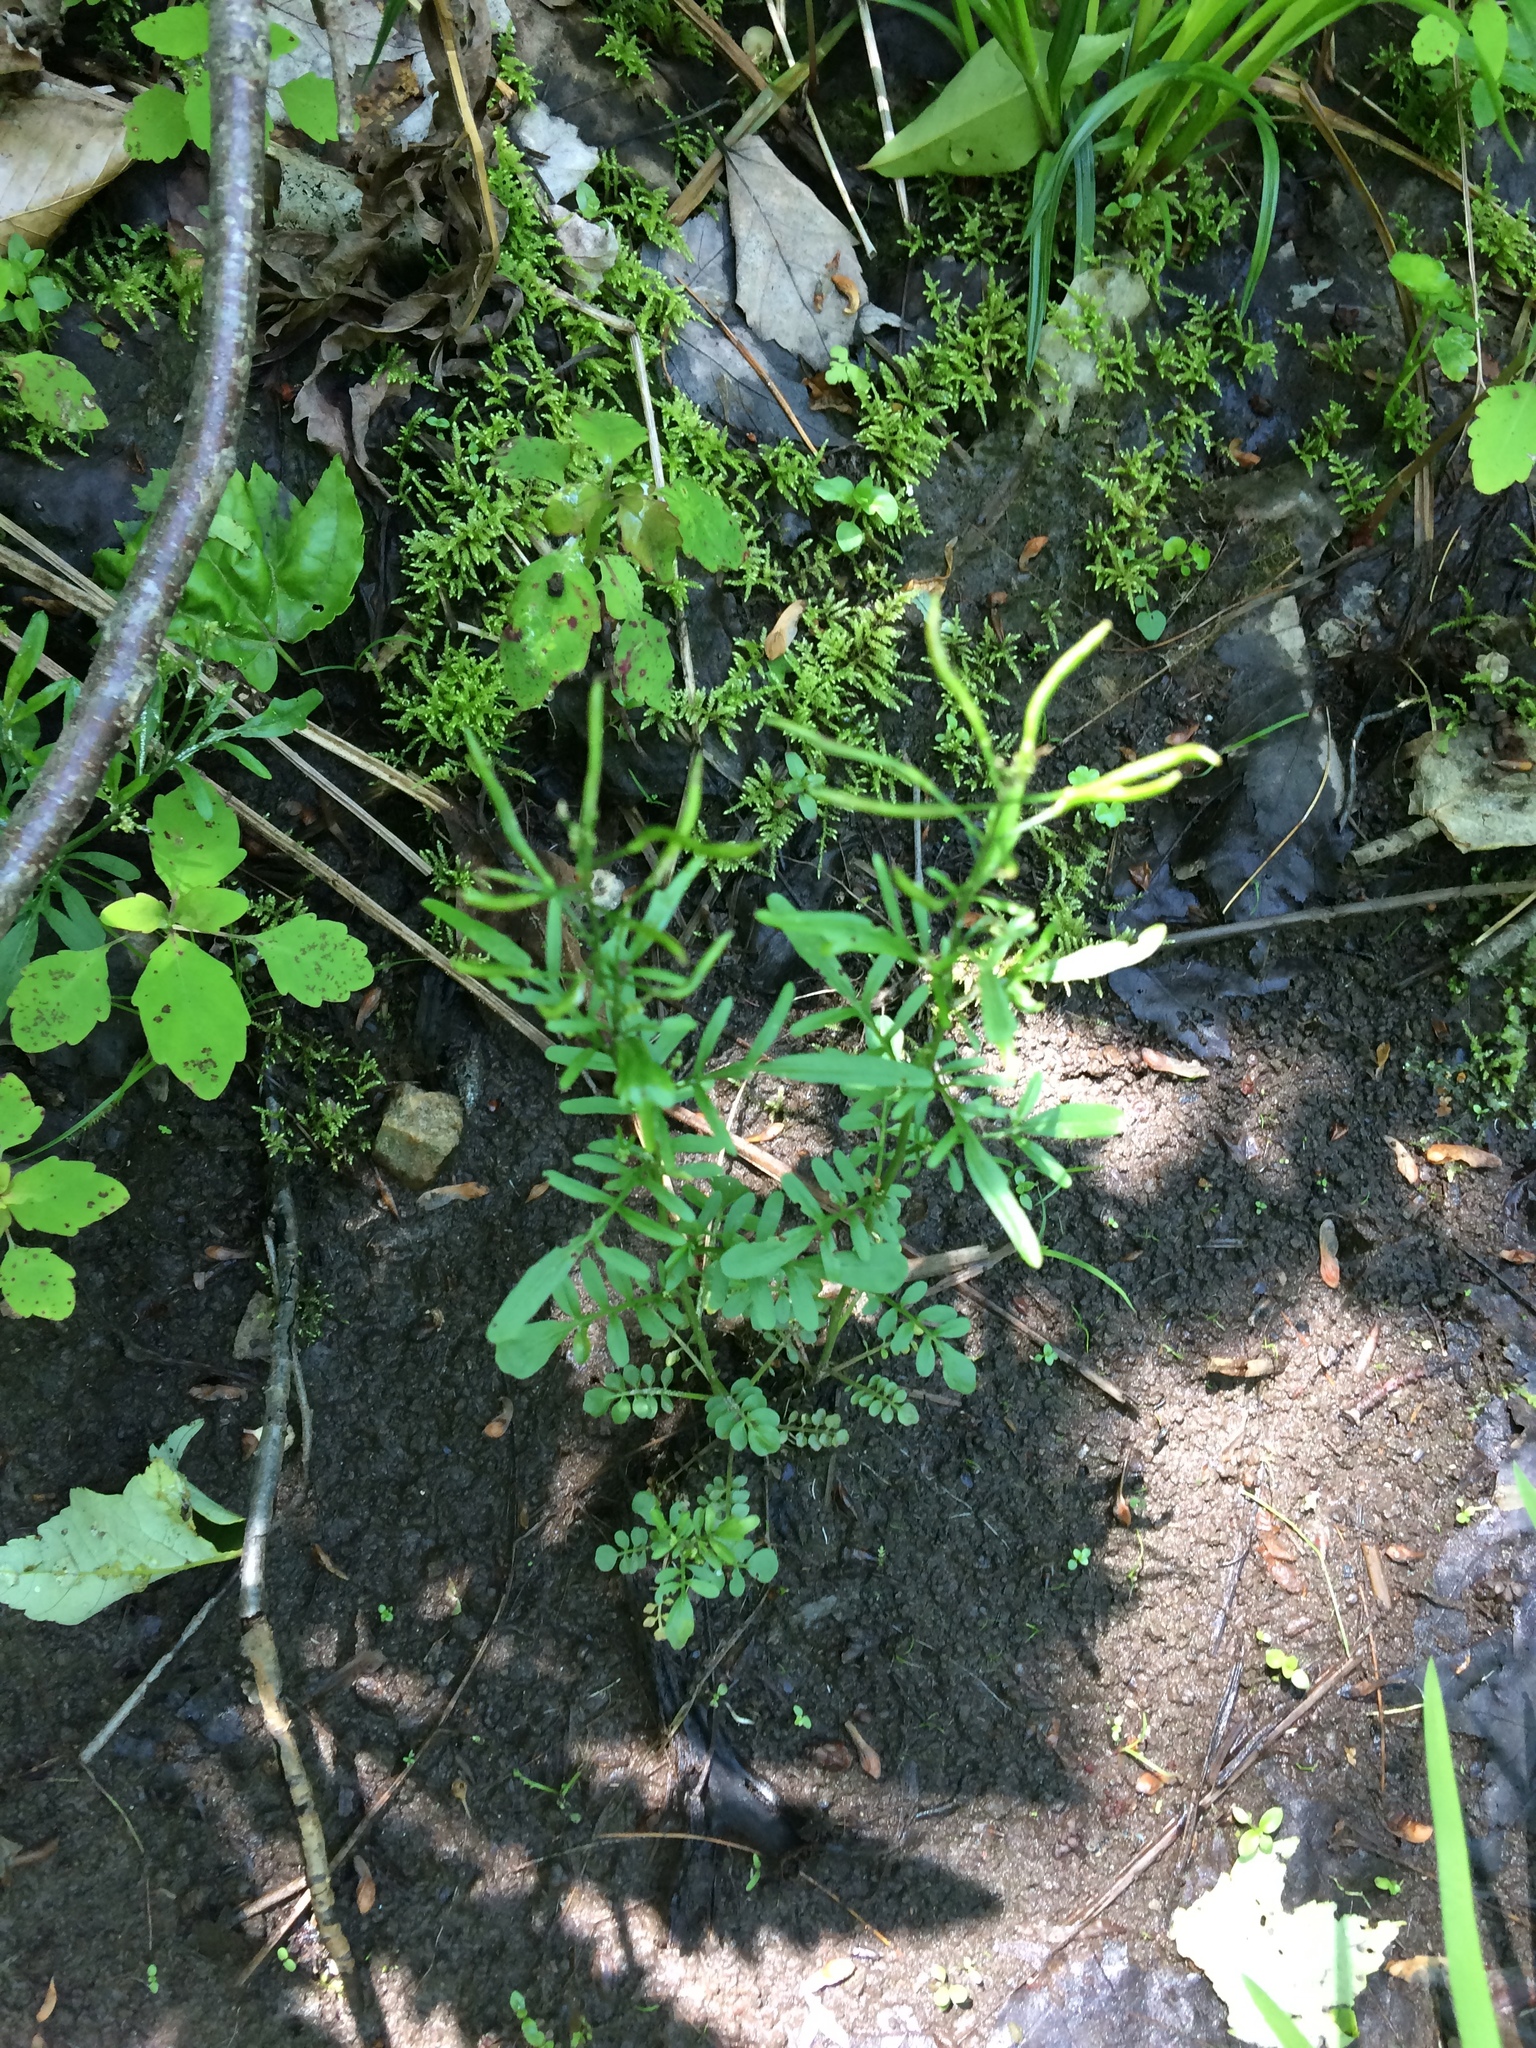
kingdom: Plantae
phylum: Tracheophyta
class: Magnoliopsida
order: Brassicales
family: Brassicaceae
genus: Cardamine
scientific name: Cardamine pensylvanica
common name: Pennsylvania bittercress
